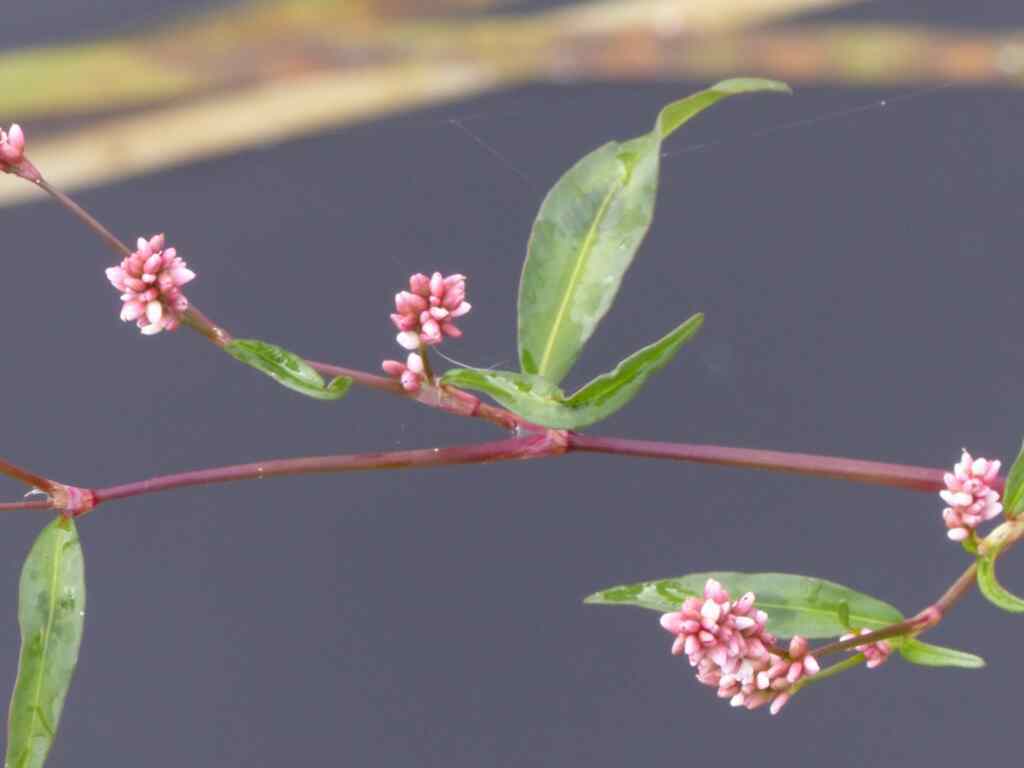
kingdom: Plantae
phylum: Tracheophyta
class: Magnoliopsida
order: Caryophyllales
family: Polygonaceae
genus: Persicaria
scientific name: Persicaria maculosa
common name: Redshank
